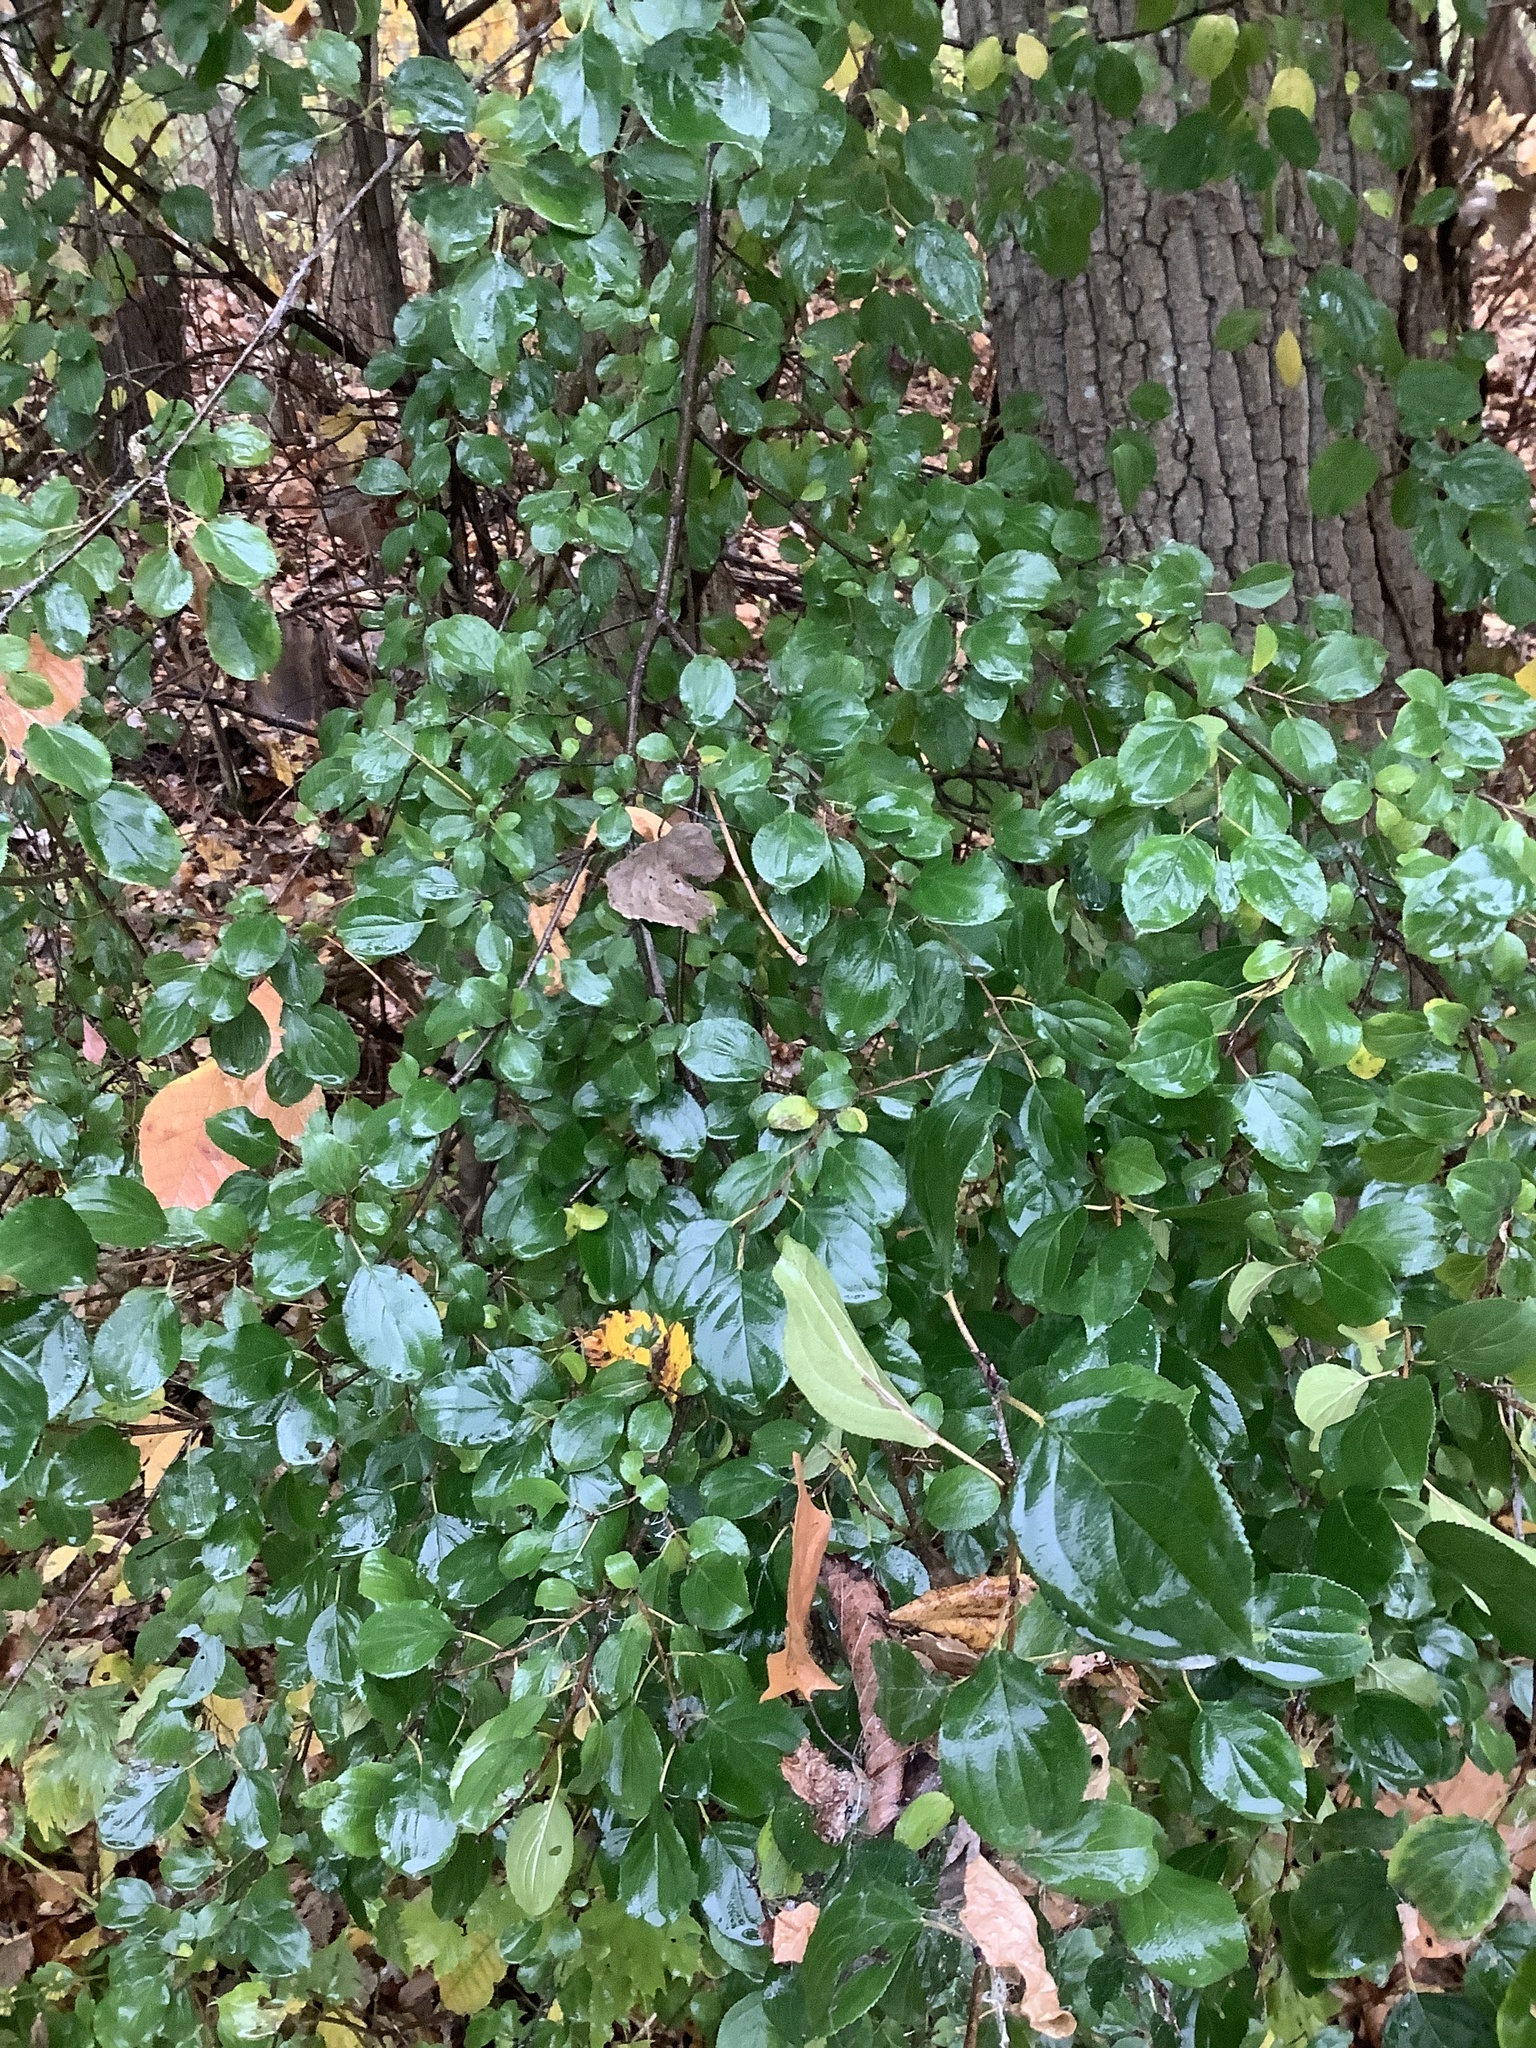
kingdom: Plantae
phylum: Tracheophyta
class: Magnoliopsida
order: Rosales
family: Rhamnaceae
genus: Rhamnus
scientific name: Rhamnus cathartica
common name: Common buckthorn
